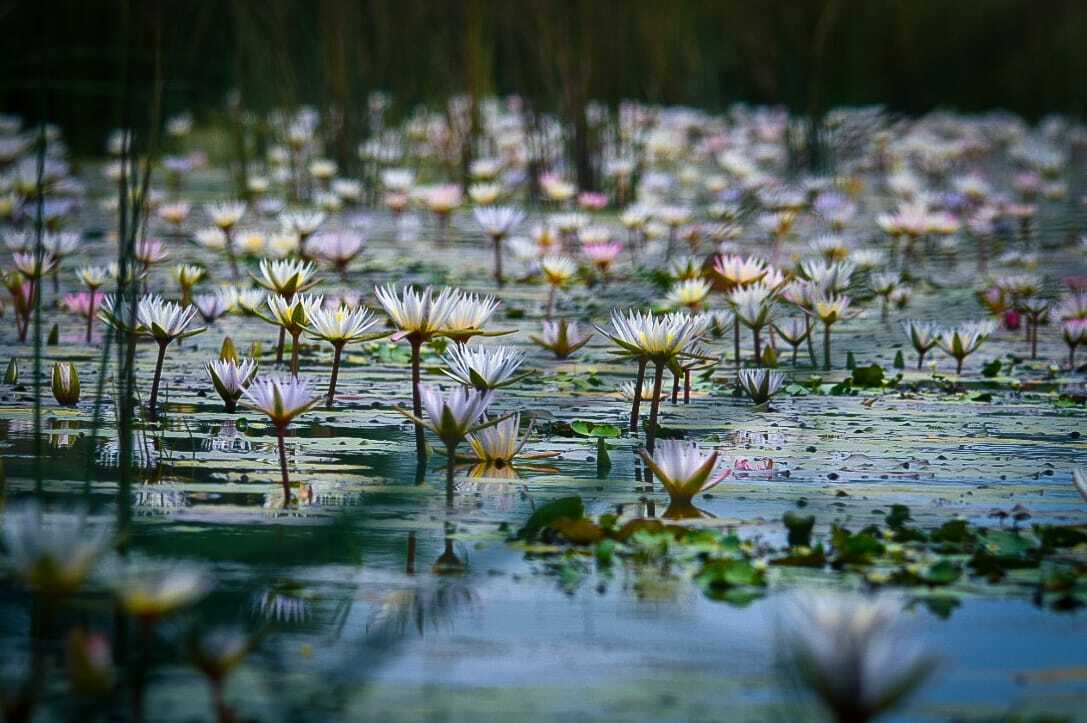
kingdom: Plantae
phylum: Tracheophyta
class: Magnoliopsida
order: Nymphaeales
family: Nymphaeaceae
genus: Nymphaea
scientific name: Nymphaea nouchali
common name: Blue lotus
